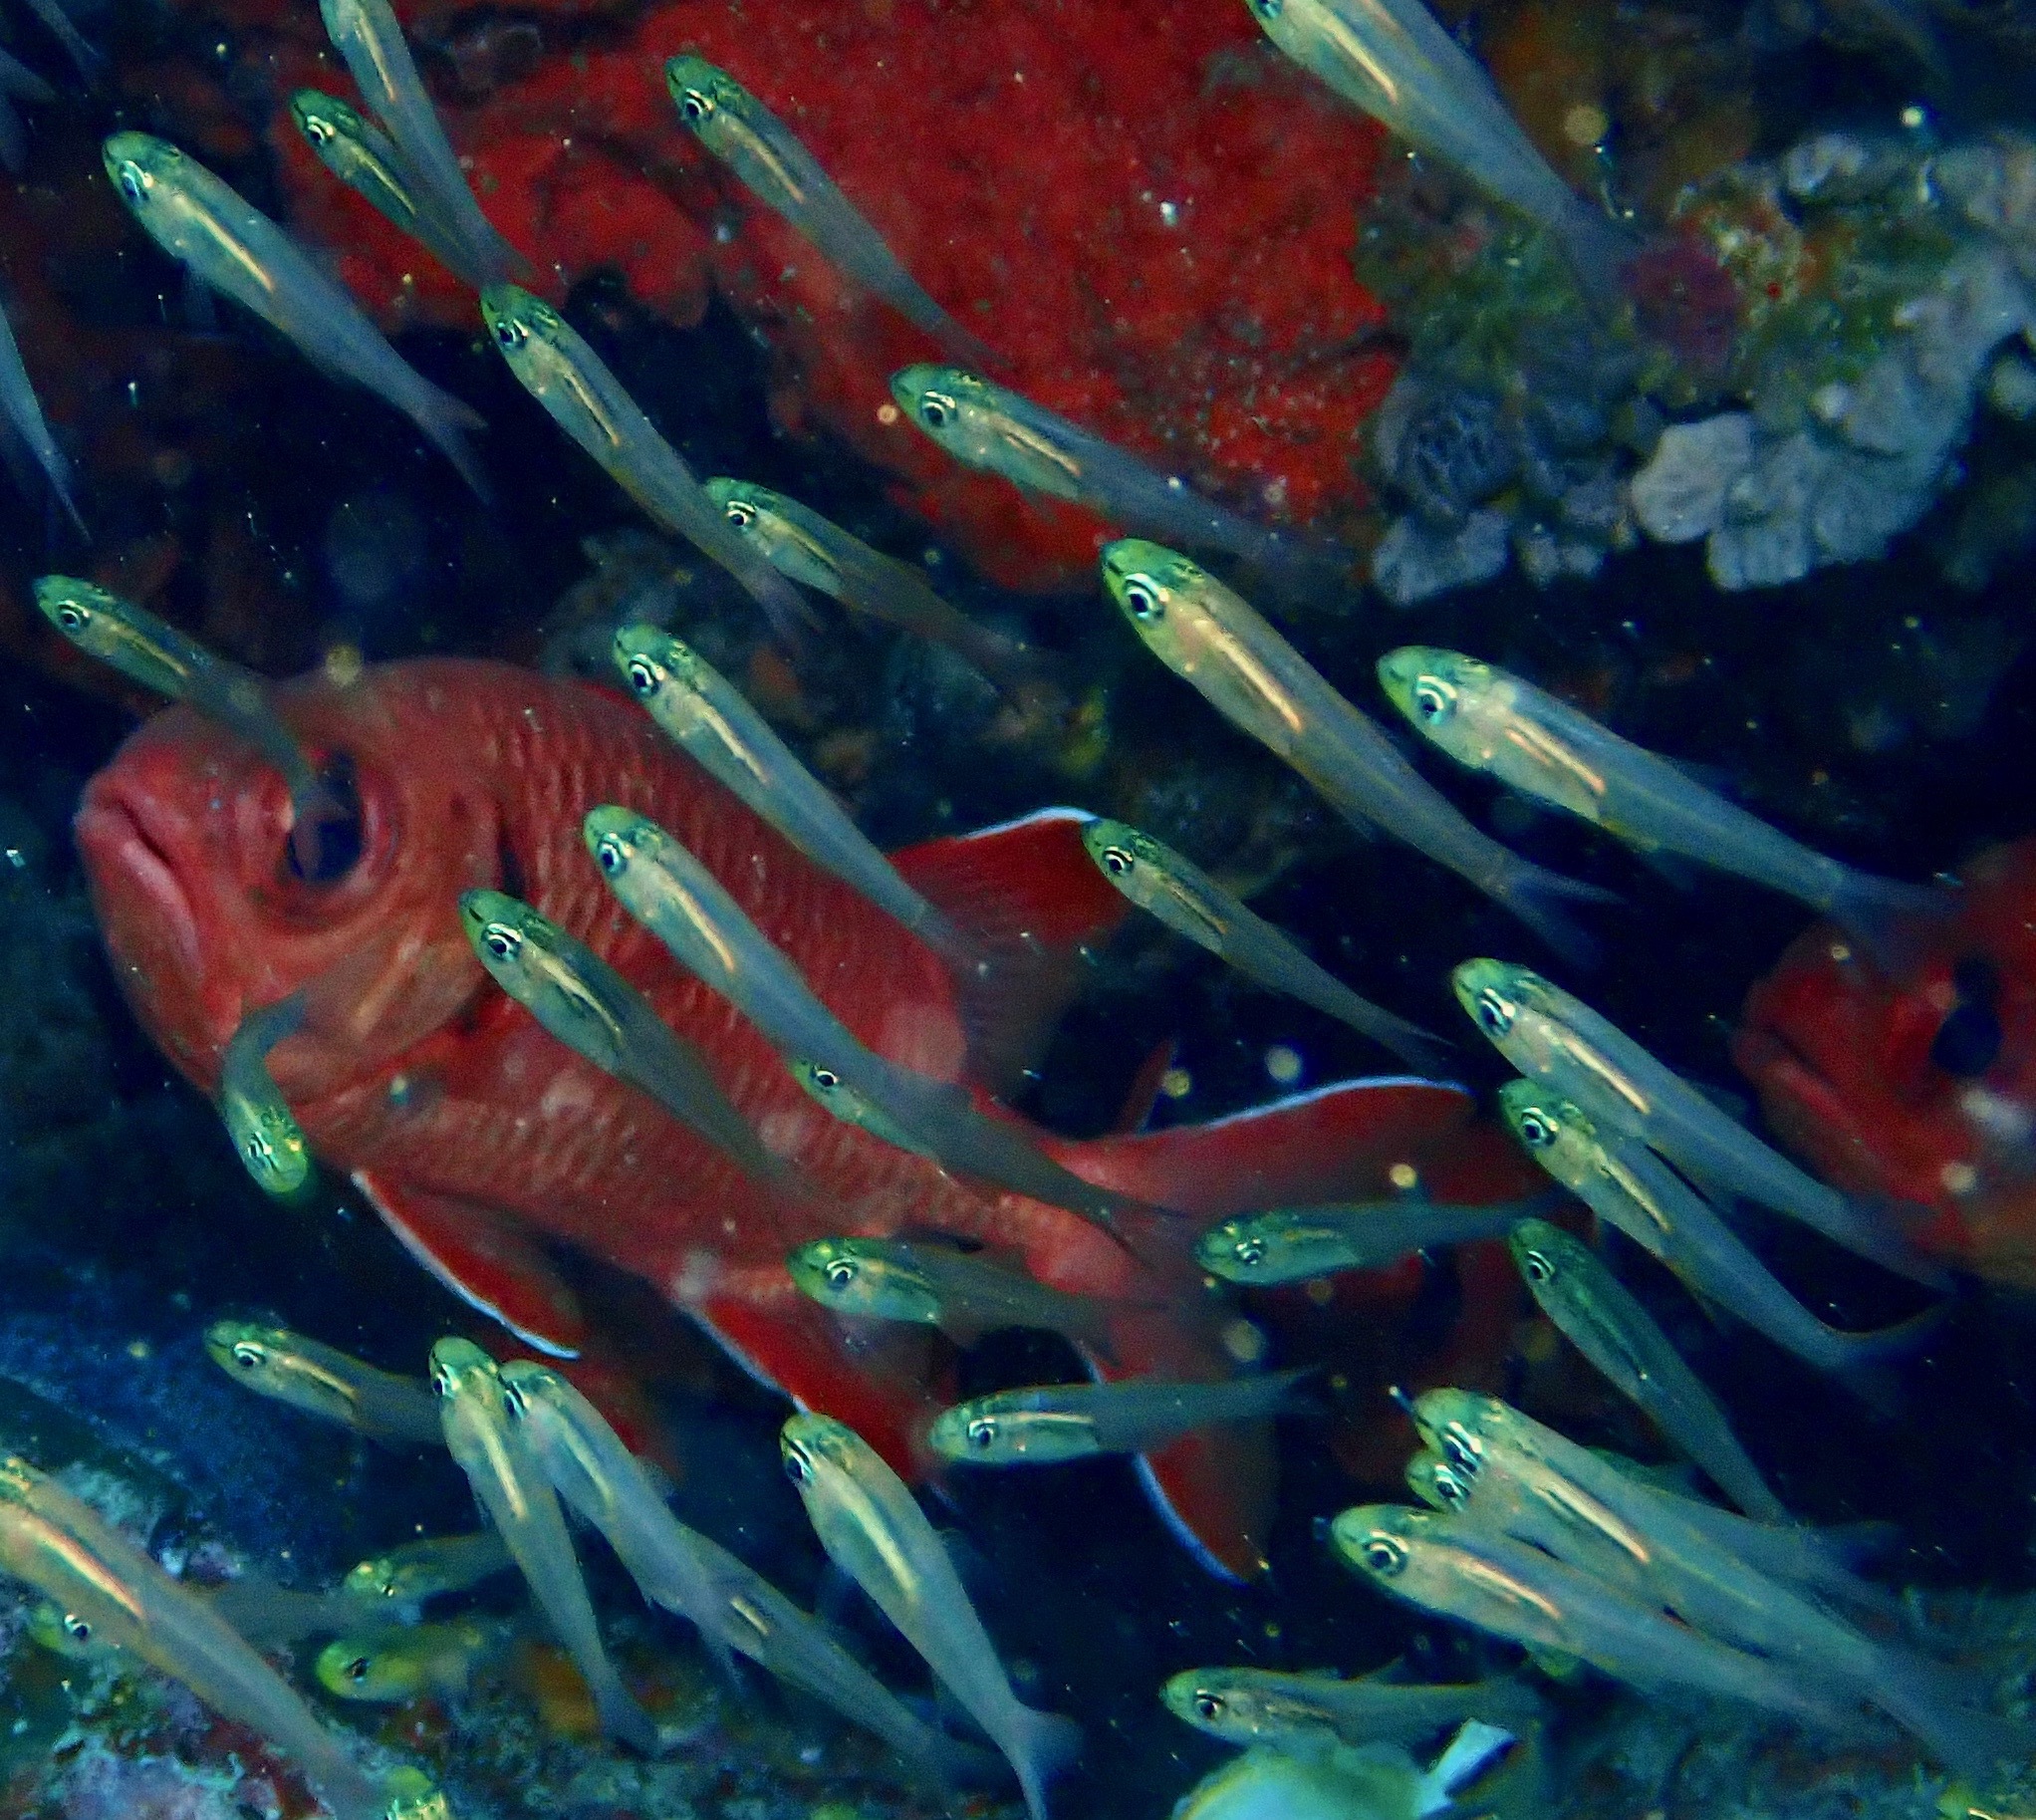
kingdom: Animalia
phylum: Chordata
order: Perciformes
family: Apogonidae
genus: Verulux
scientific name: Verulux cypselurus
